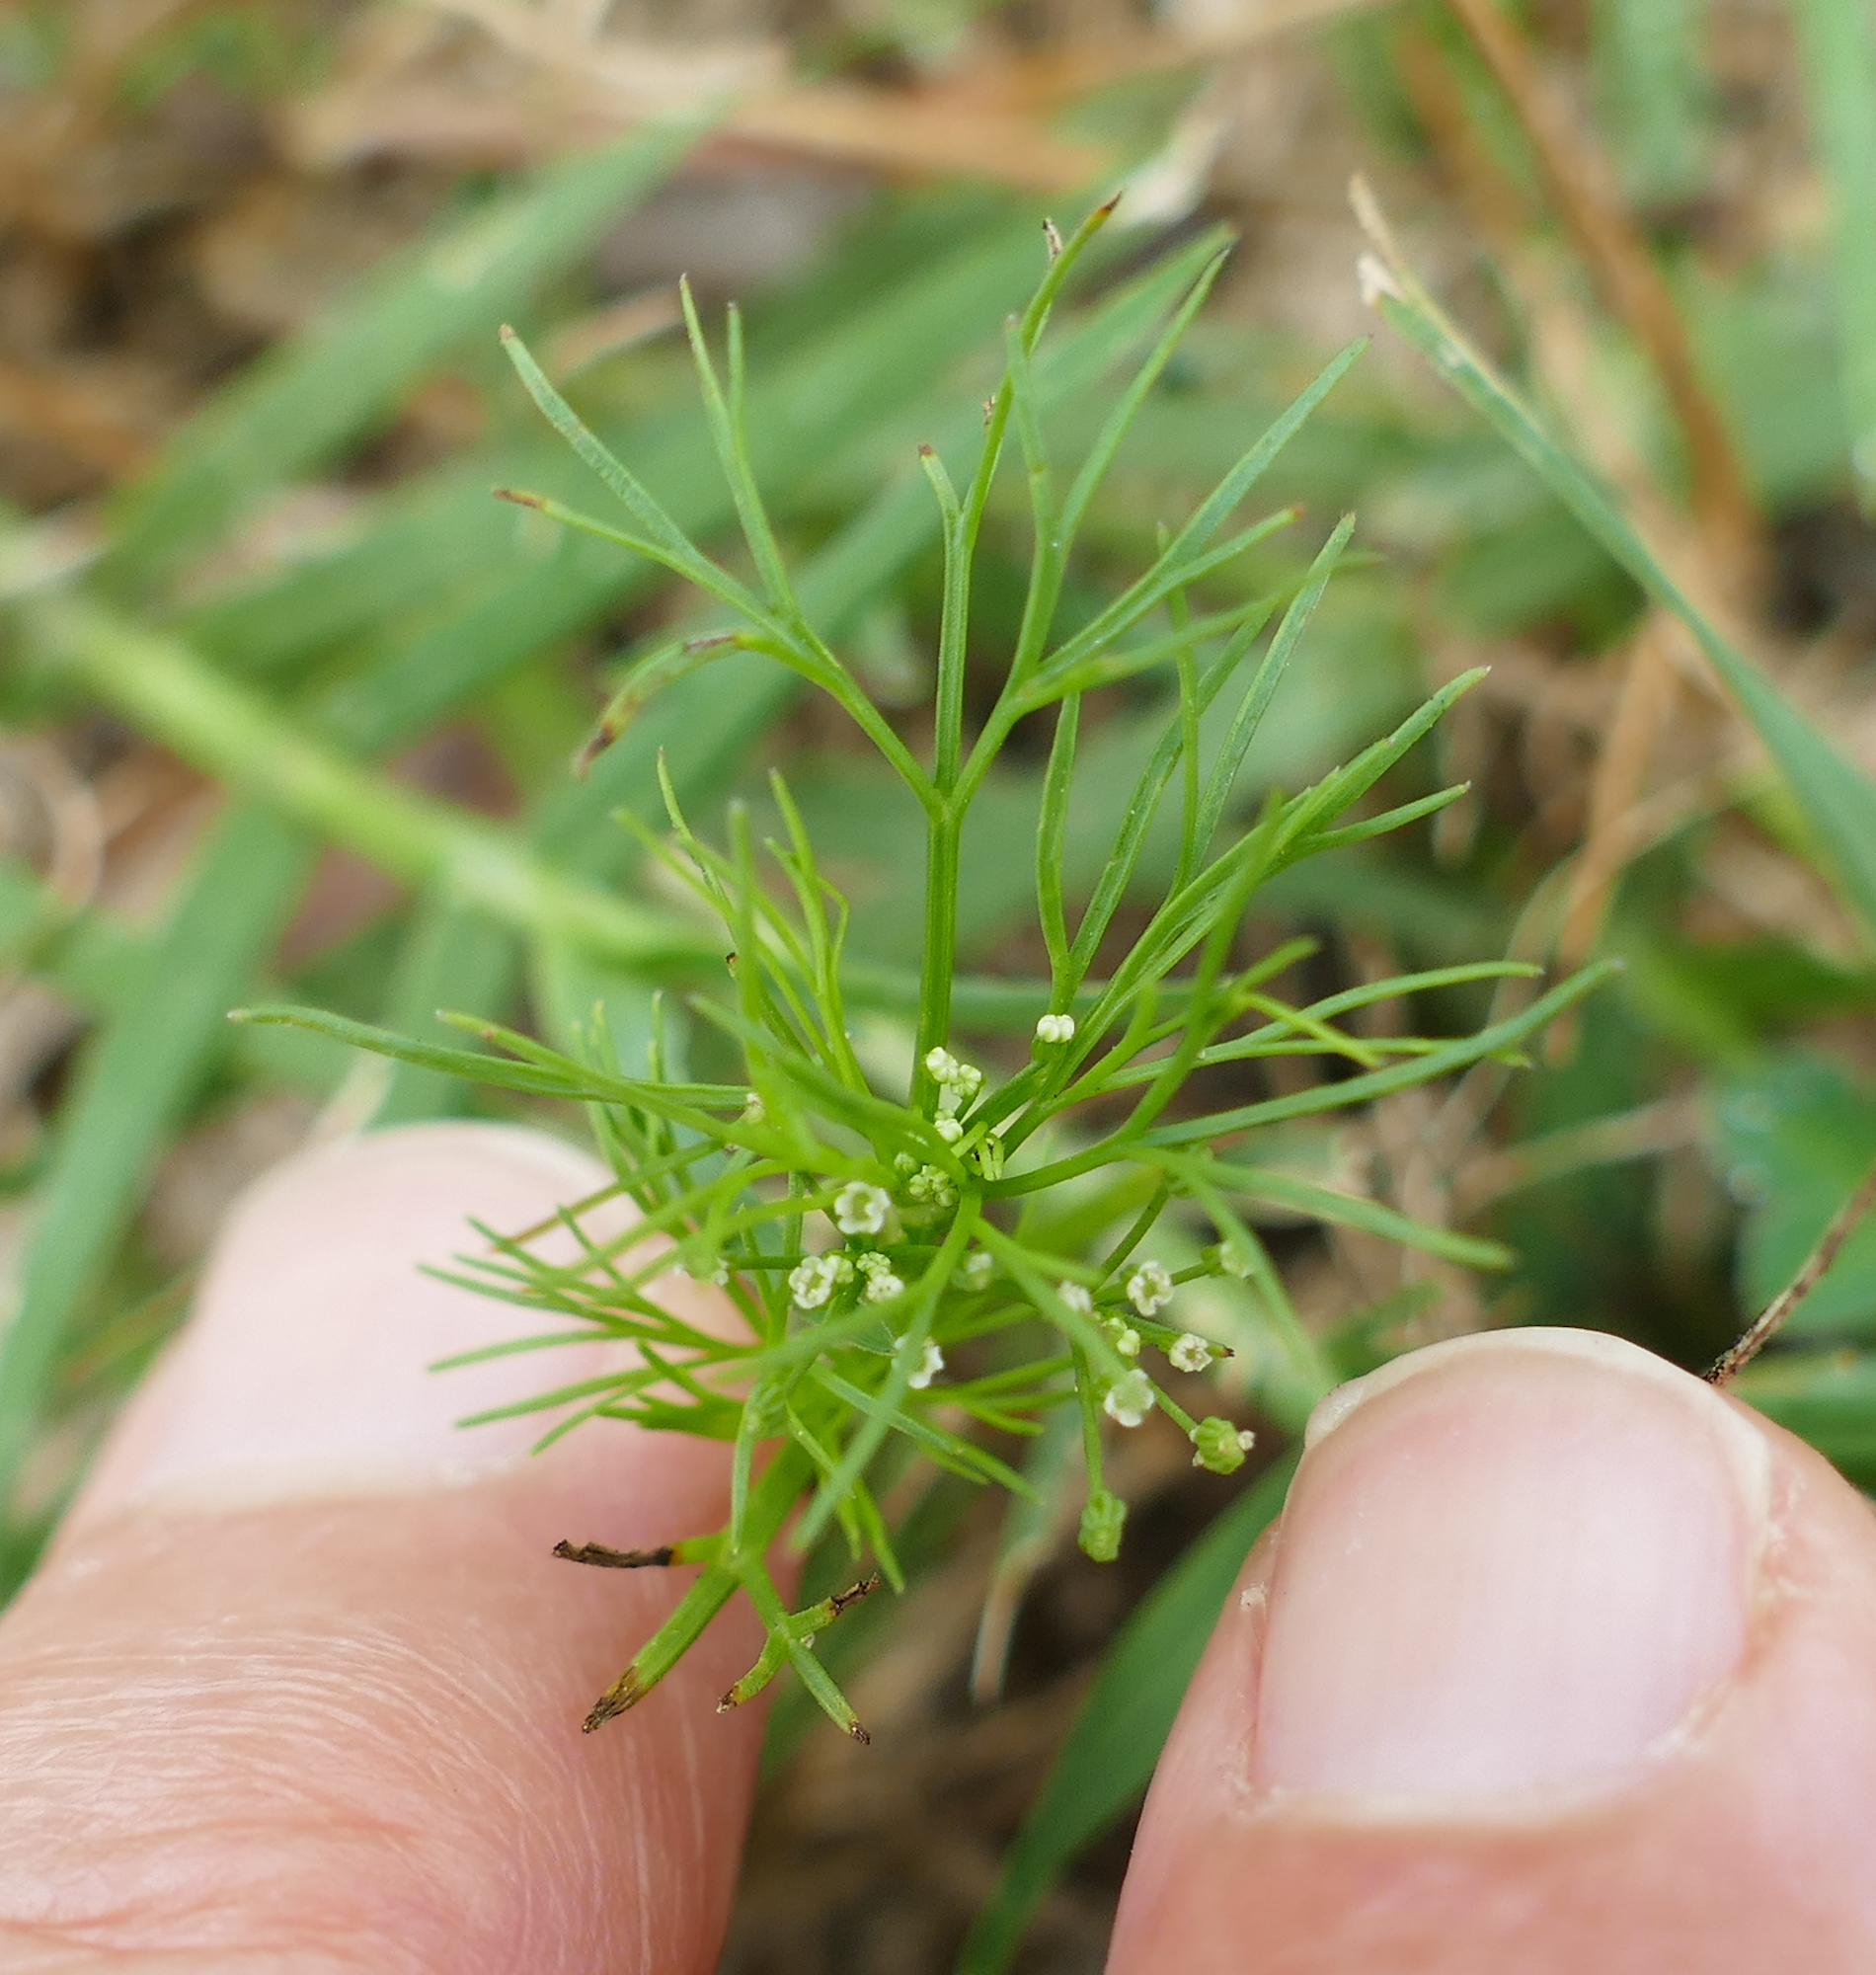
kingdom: Plantae
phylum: Tracheophyta
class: Magnoliopsida
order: Apiales
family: Apiaceae
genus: Cyclospermum
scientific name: Cyclospermum leptophyllum
